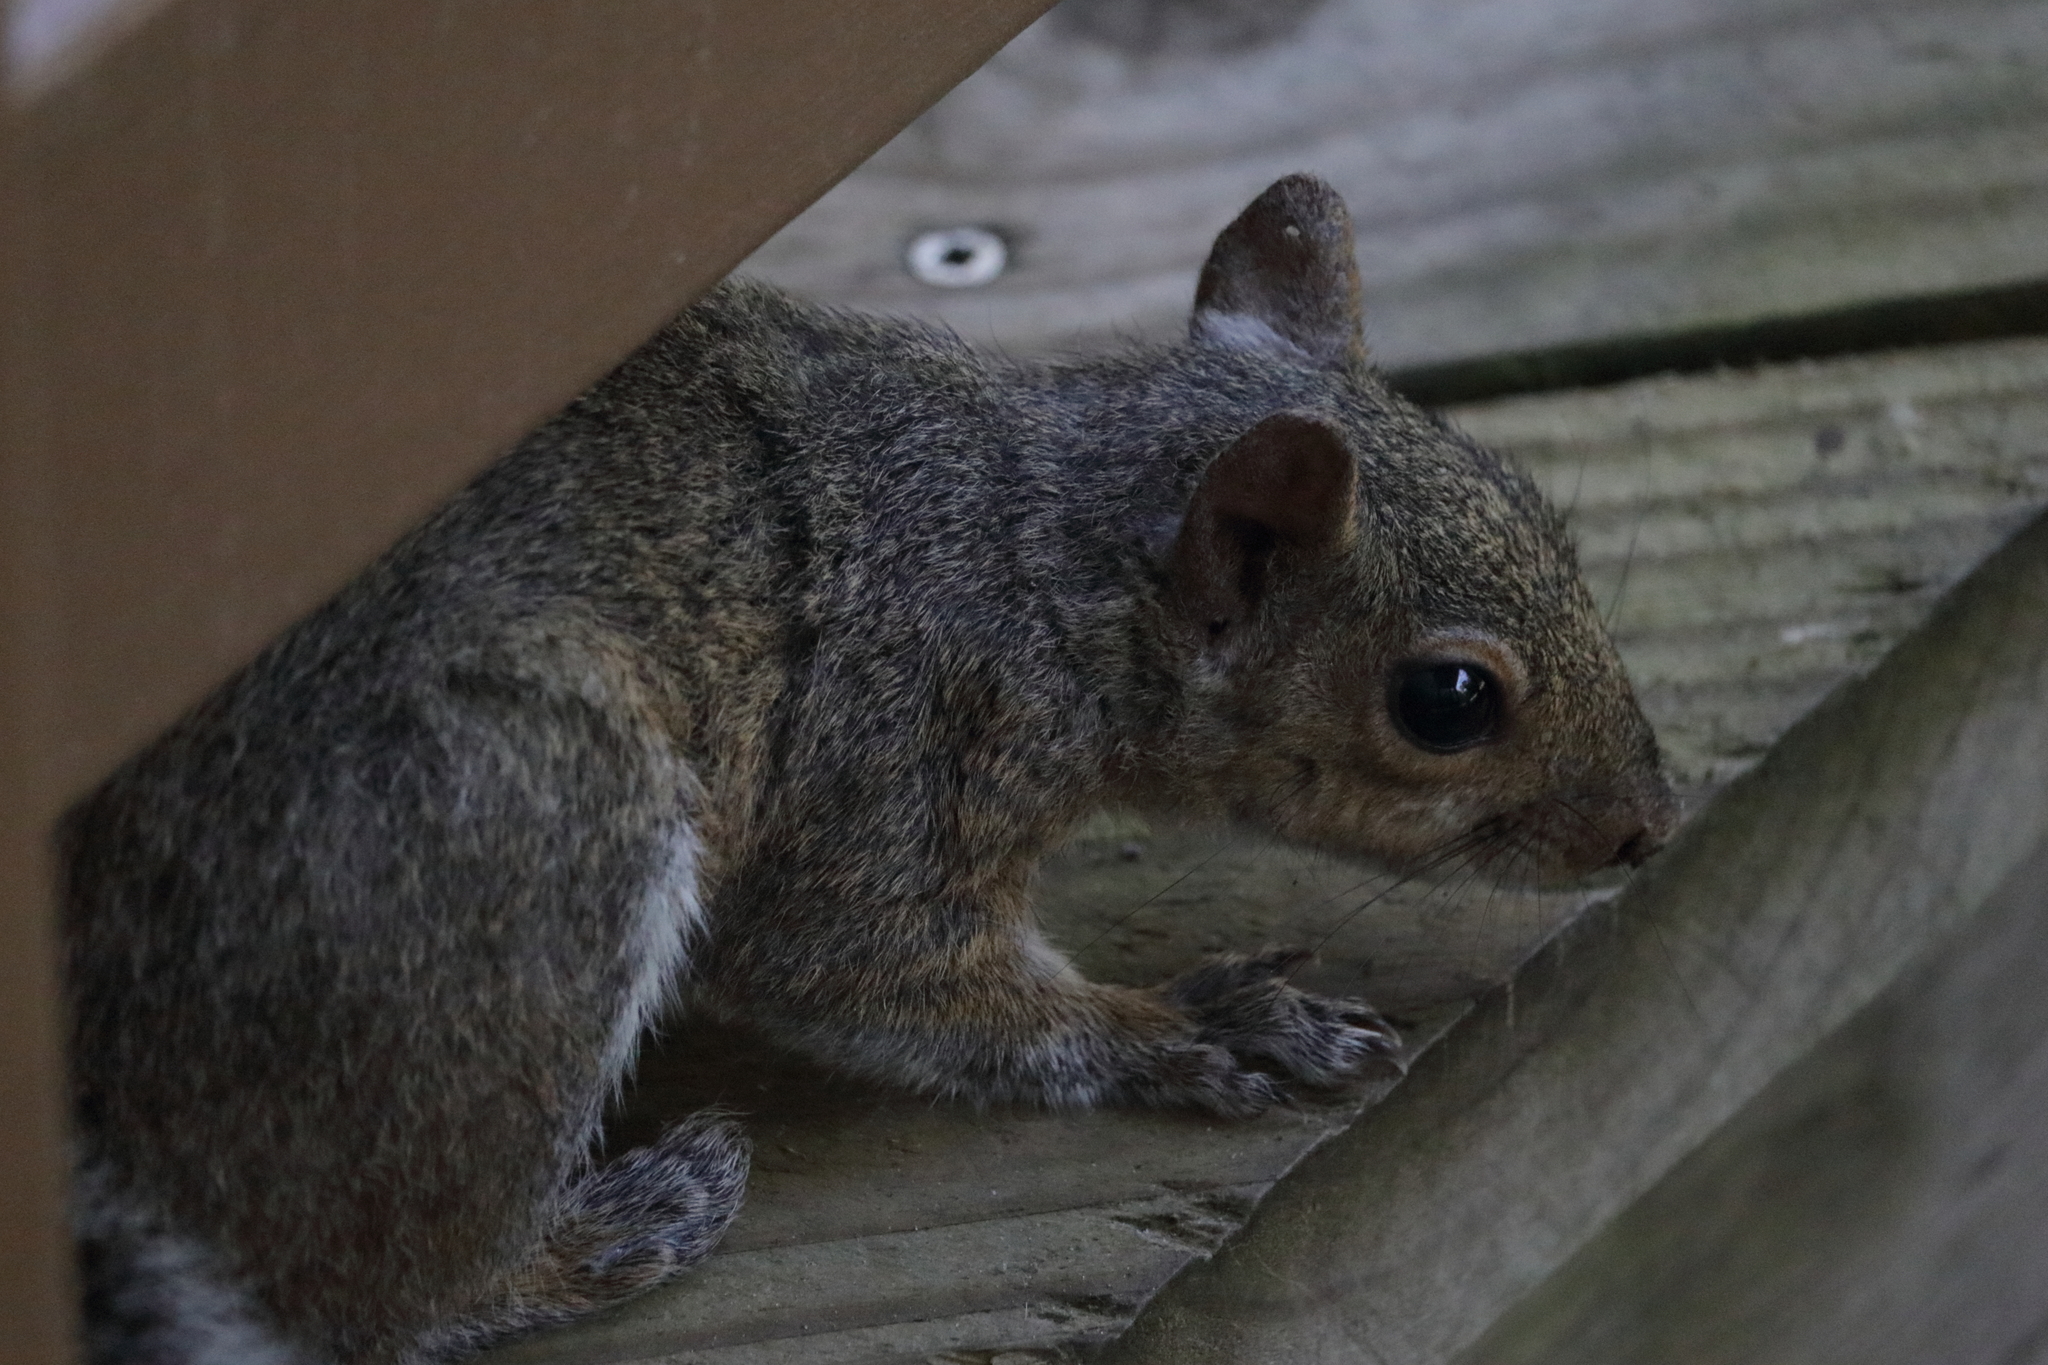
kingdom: Animalia
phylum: Chordata
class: Mammalia
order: Rodentia
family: Sciuridae
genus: Sciurus
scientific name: Sciurus carolinensis
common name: Eastern gray squirrel
